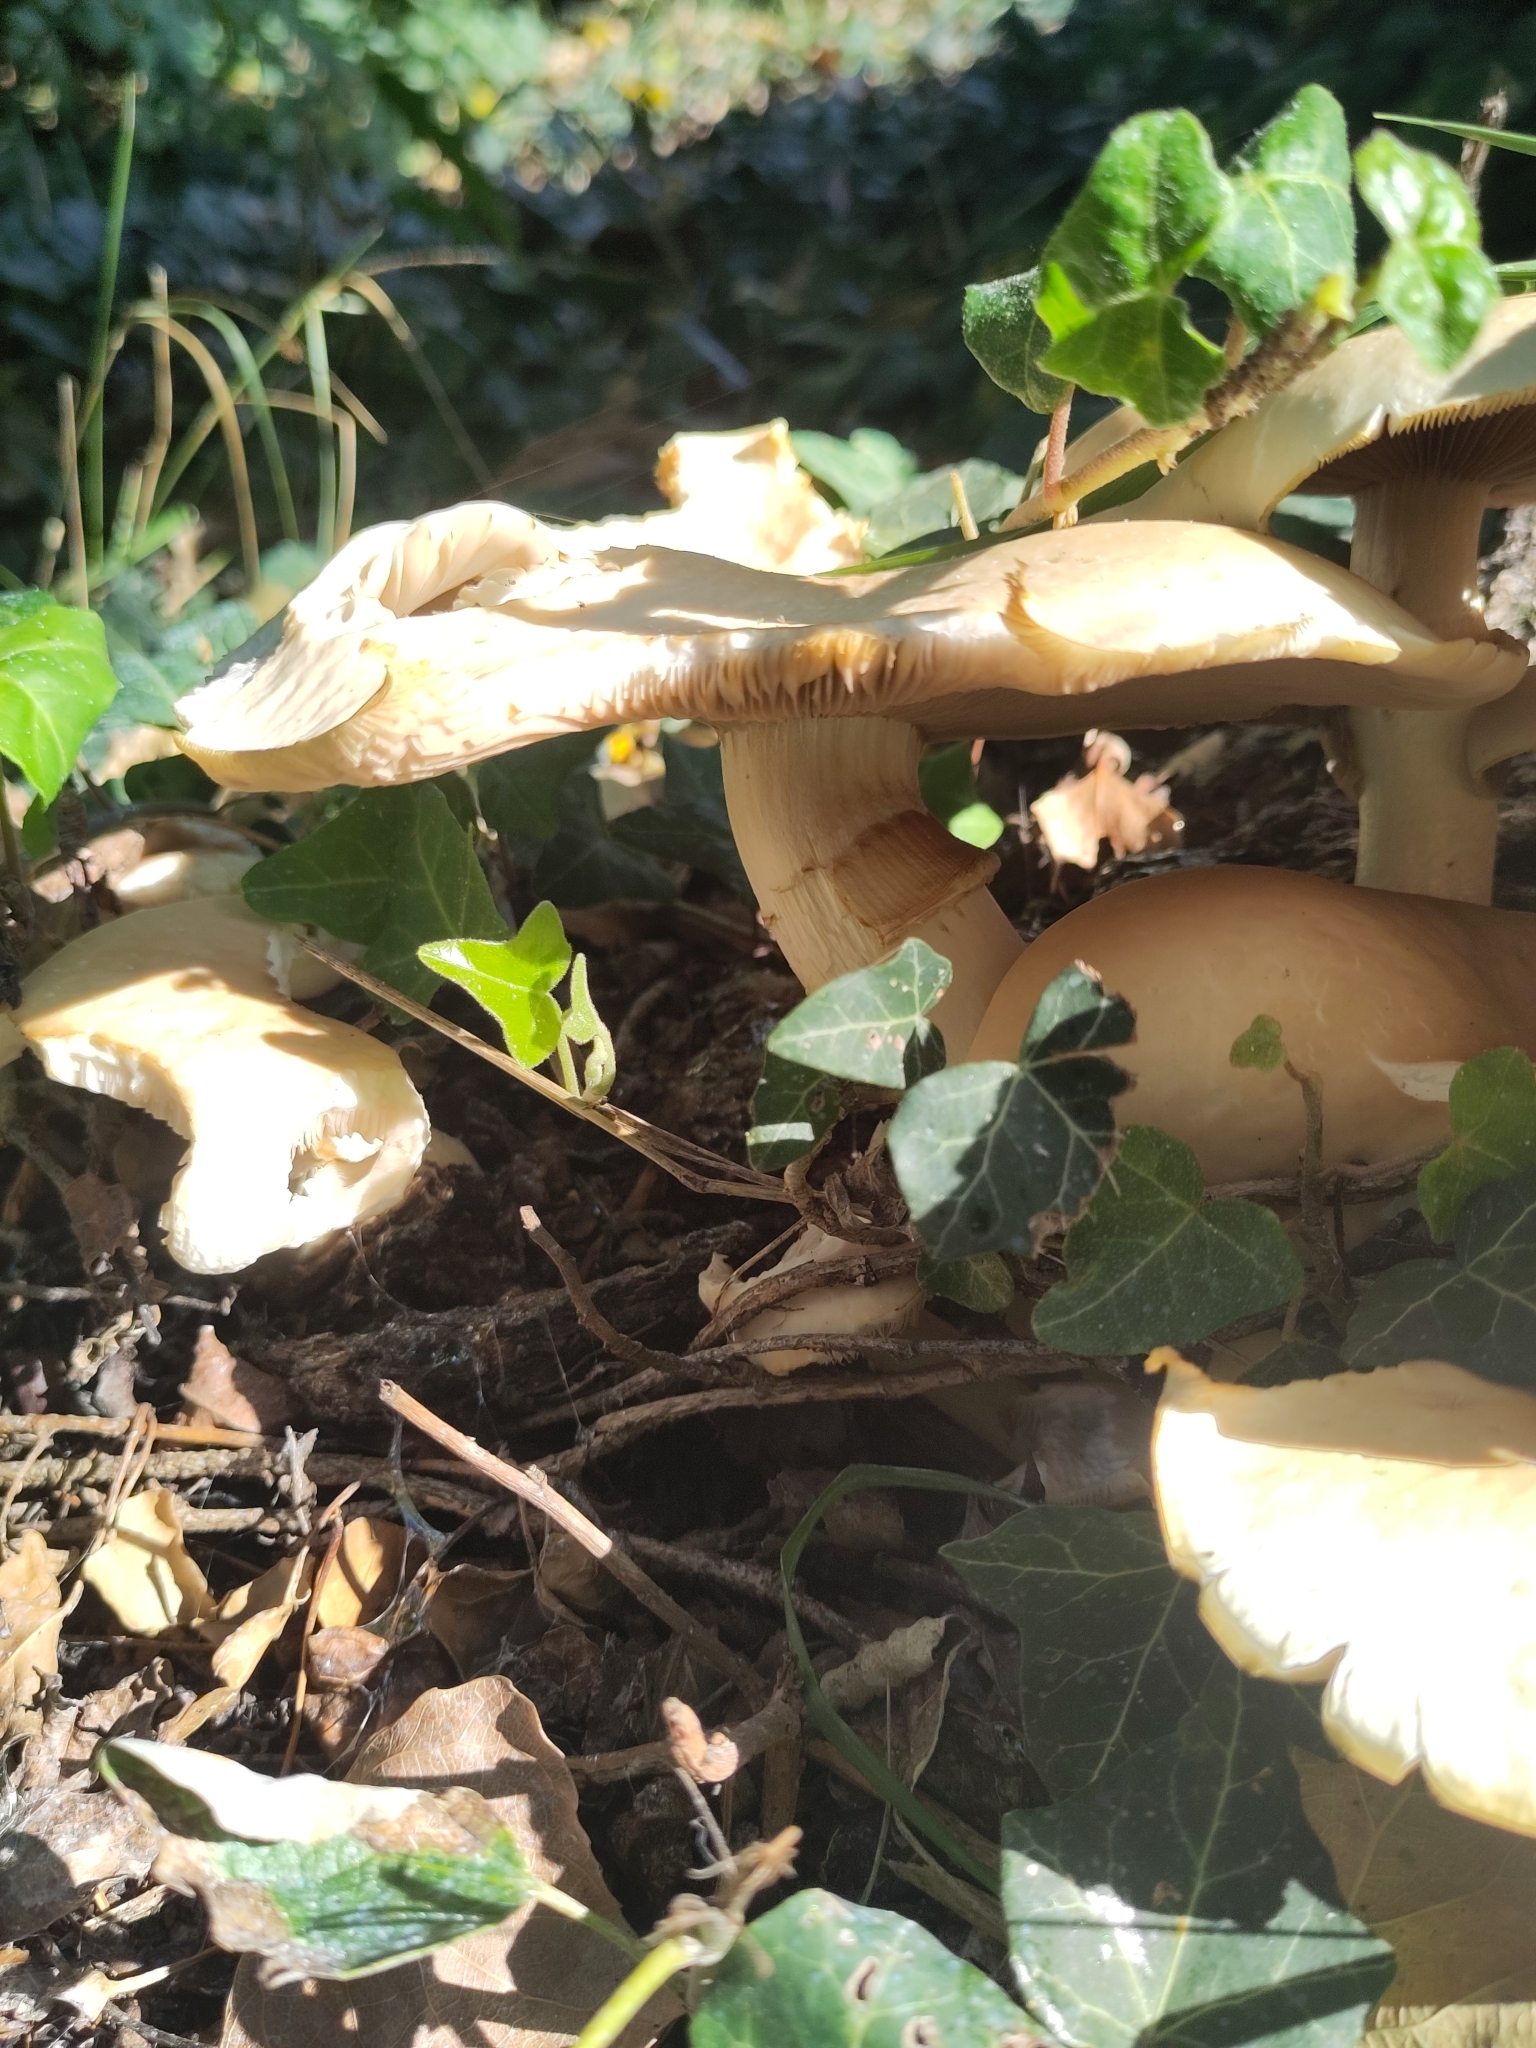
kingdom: Fungi
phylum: Basidiomycota
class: Agaricomycetes
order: Agaricales
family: Tubariaceae
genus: Cyclocybe
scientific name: Cyclocybe cylindracea
